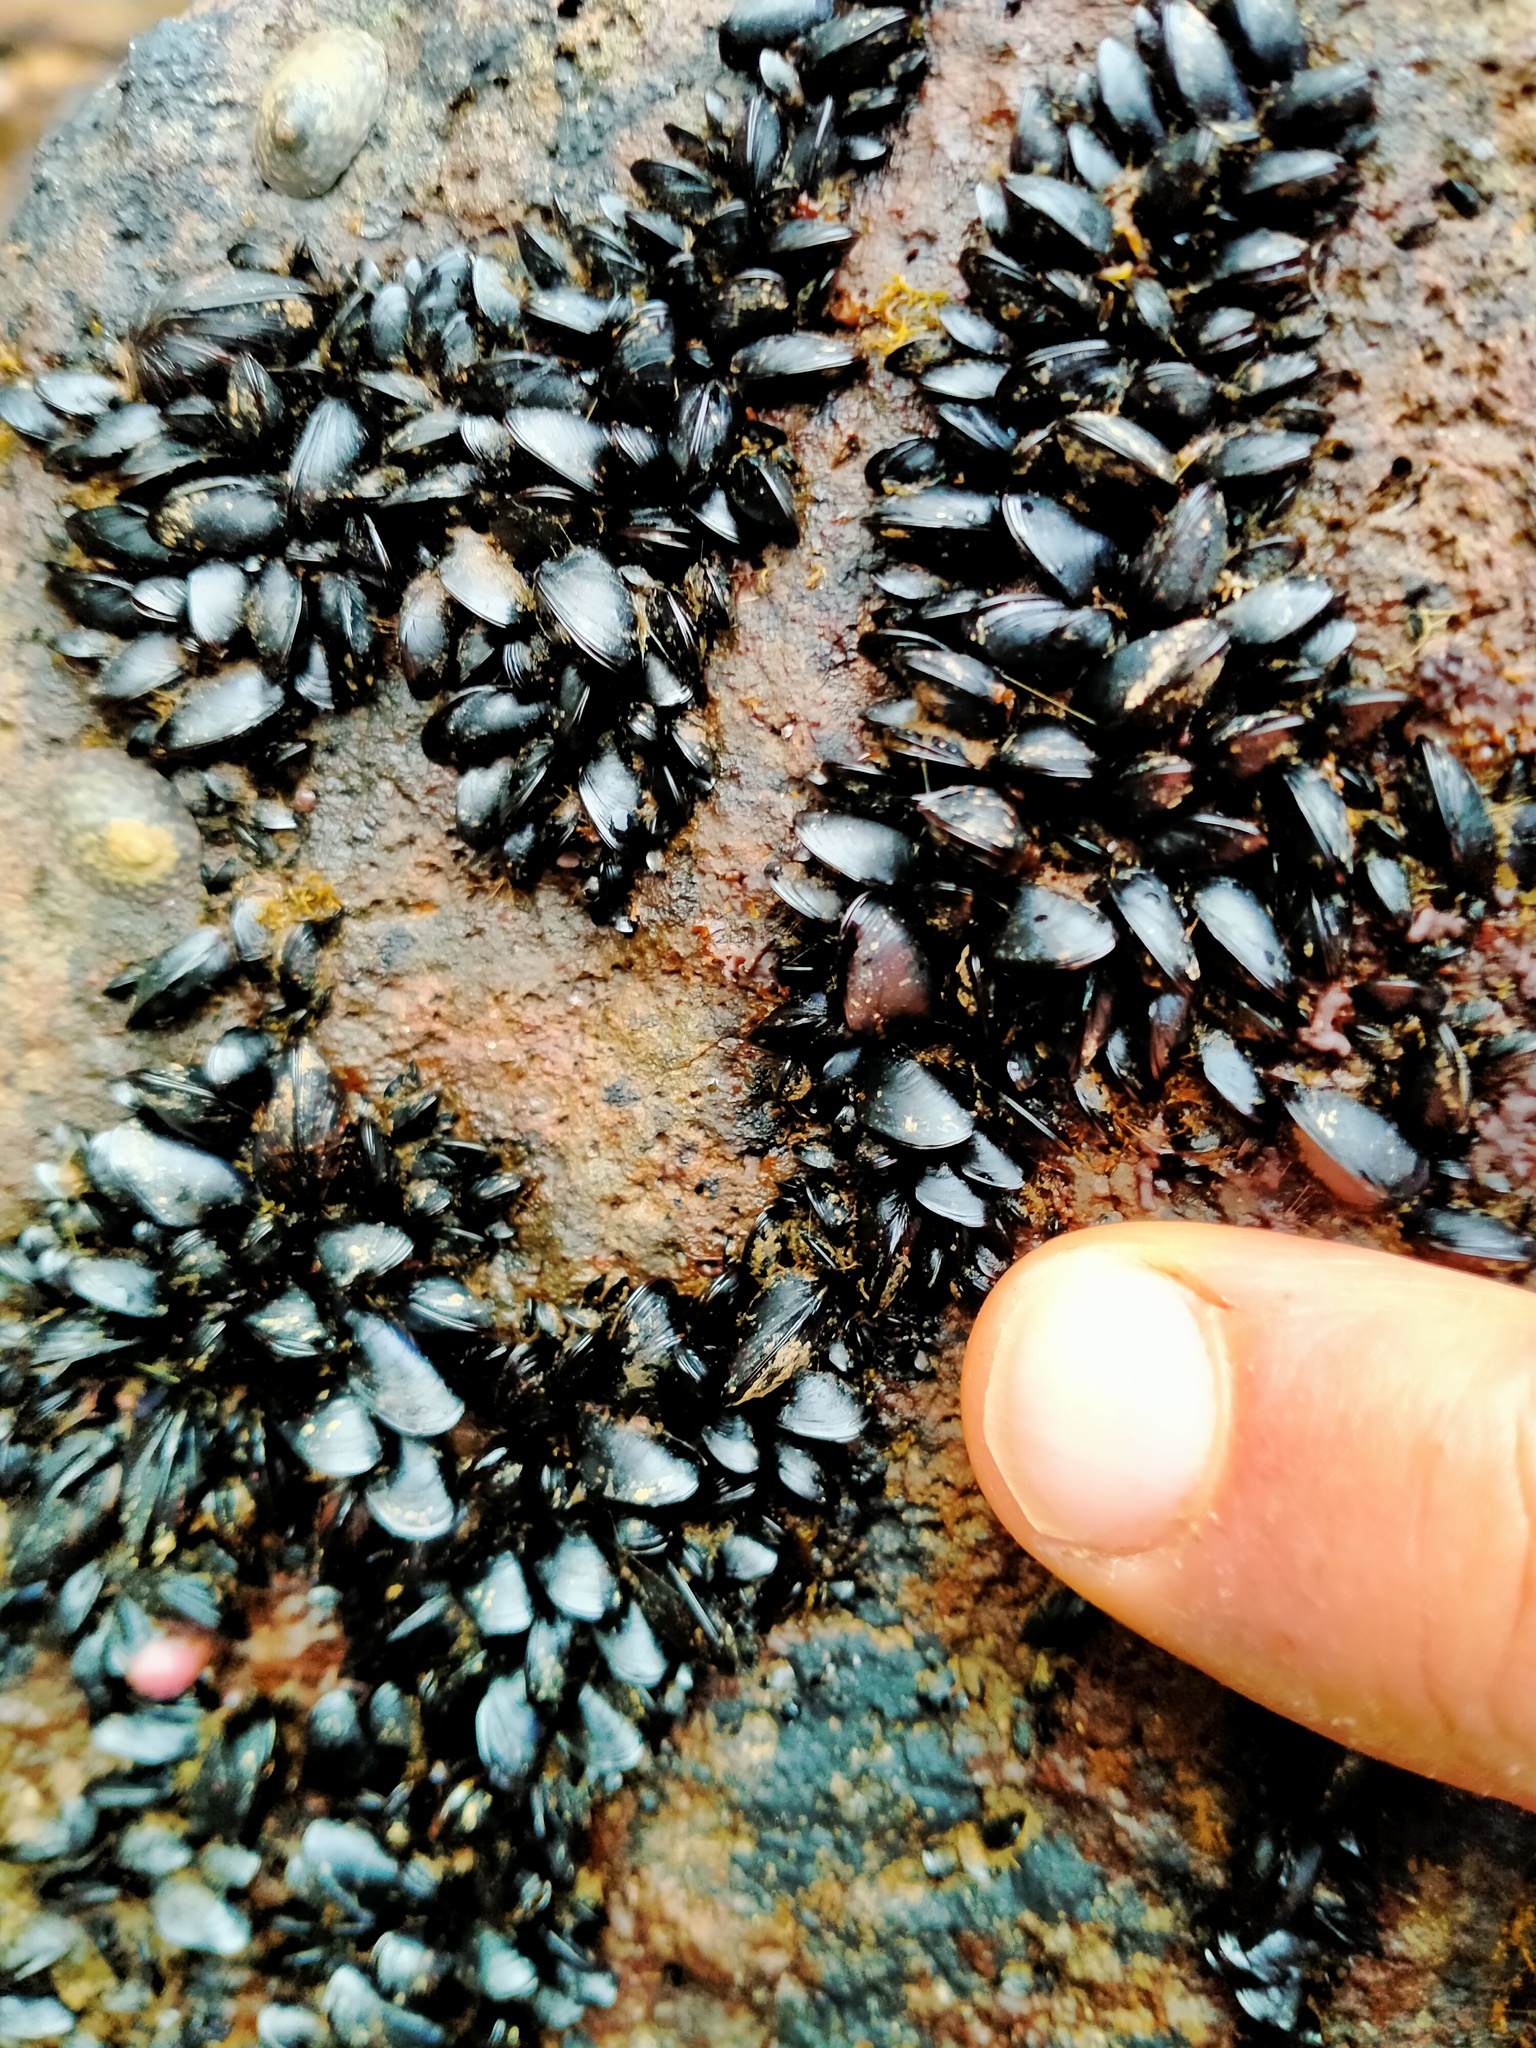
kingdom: Animalia
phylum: Mollusca
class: Bivalvia
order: Mytilida
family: Mytilidae
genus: Xenostrobus
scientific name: Xenostrobus neozelanicus
